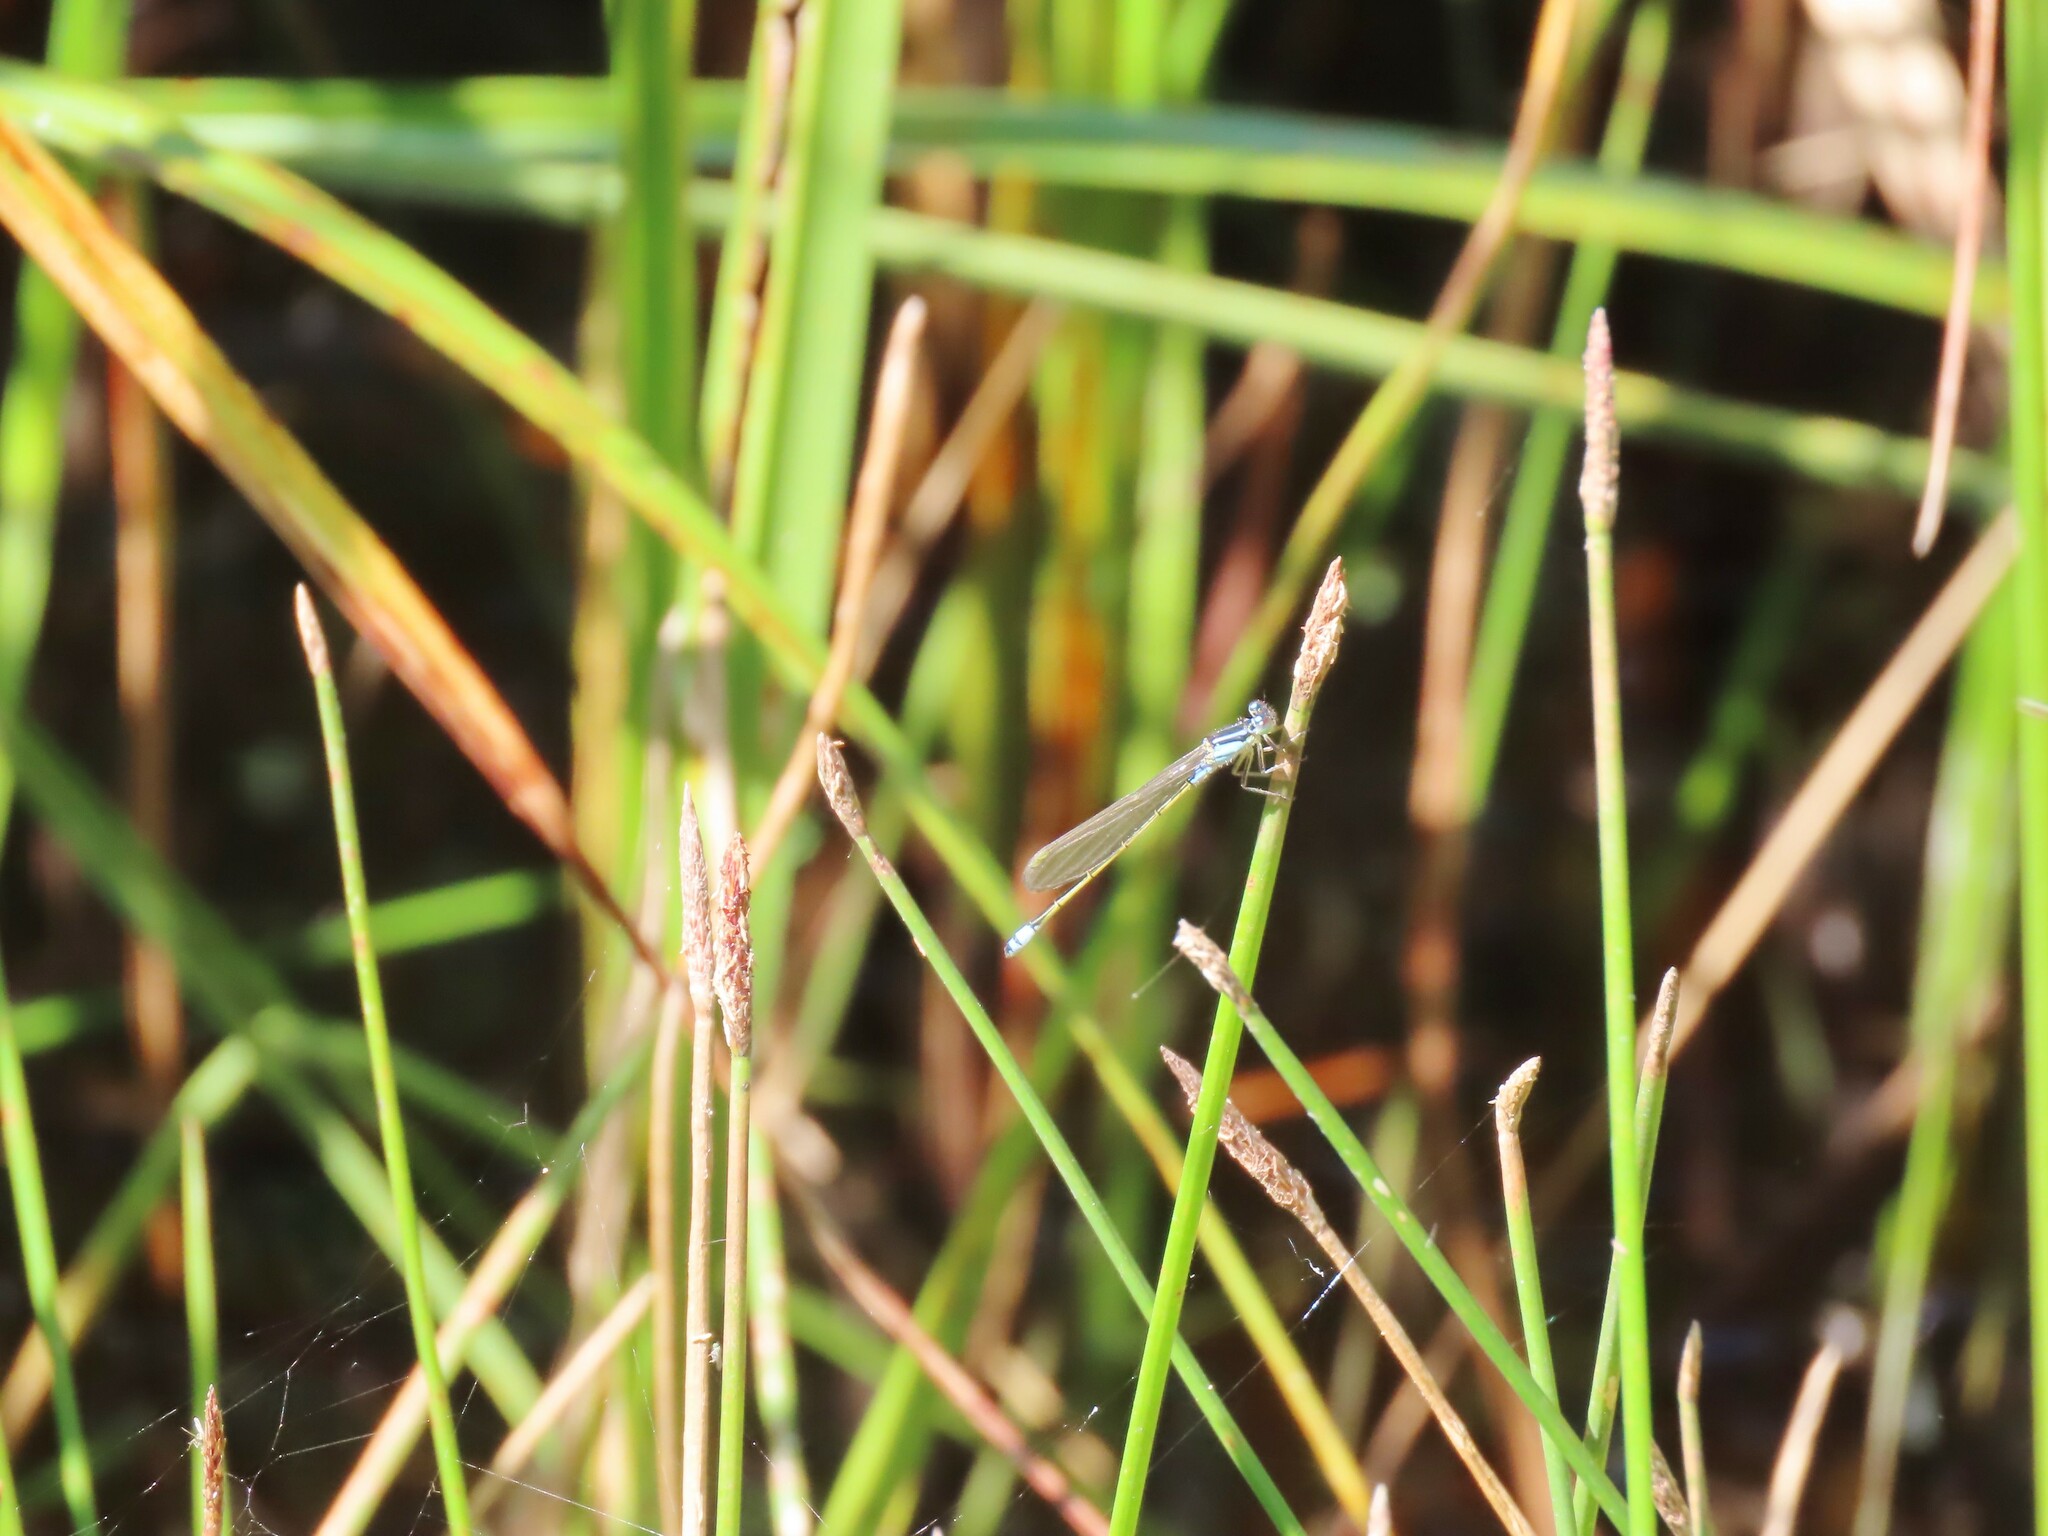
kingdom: Animalia
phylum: Arthropoda
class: Insecta
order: Odonata
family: Coenagrionidae
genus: Ischnura
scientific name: Ischnura heterosticta
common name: Common bluetail
